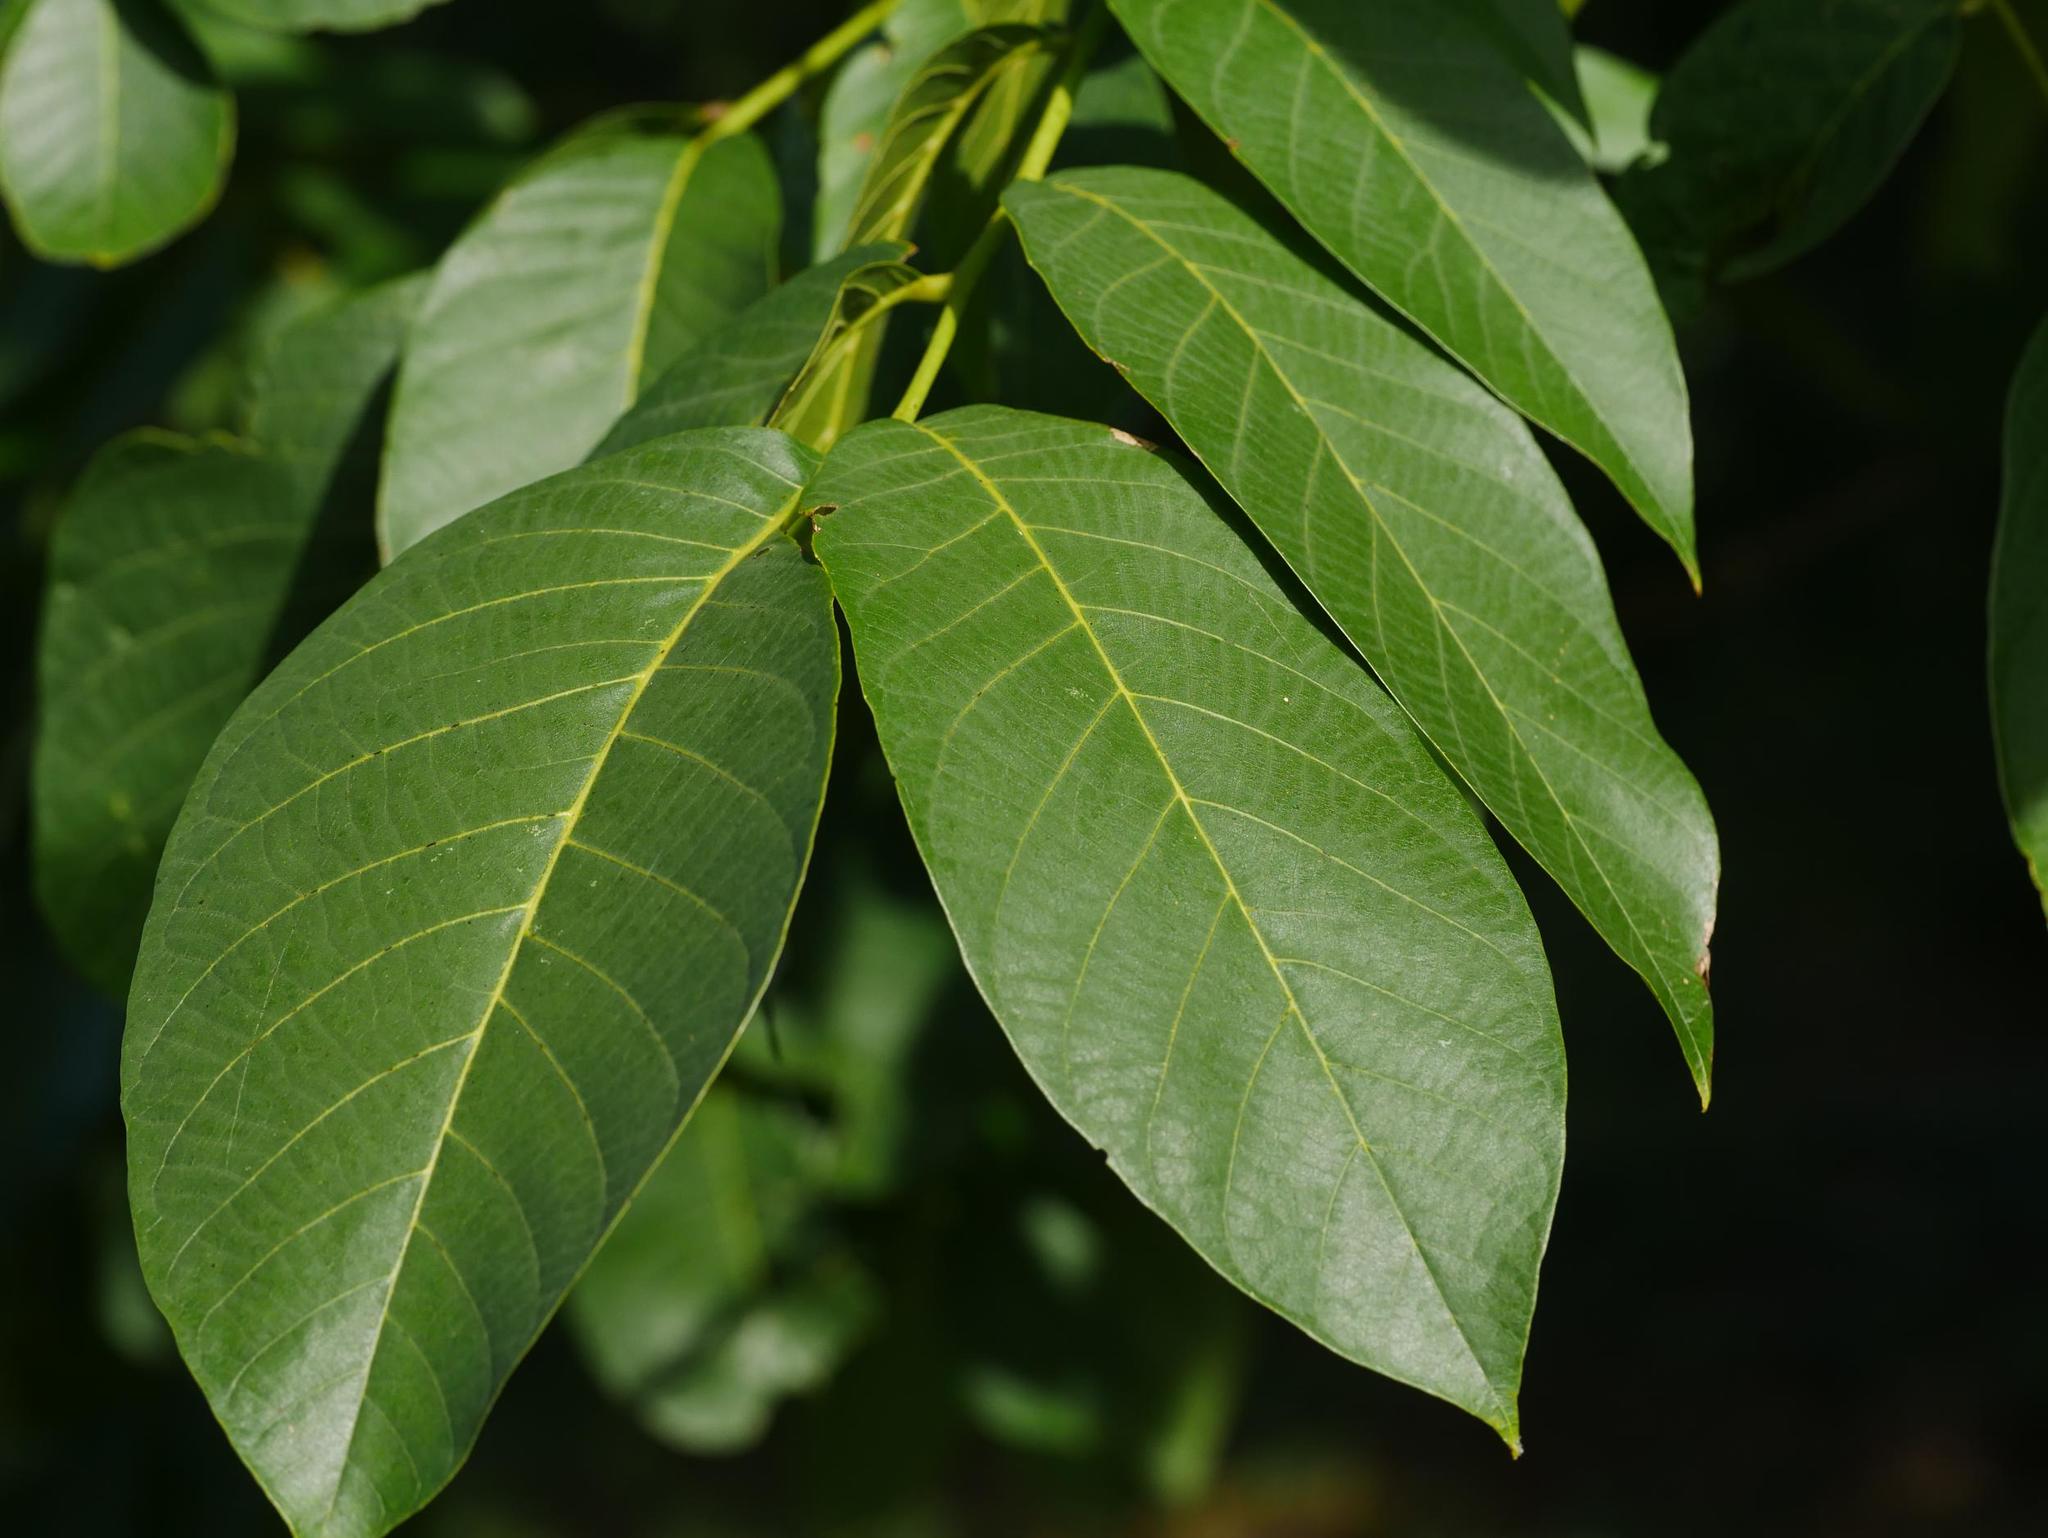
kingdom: Plantae
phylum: Tracheophyta
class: Magnoliopsida
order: Fagales
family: Juglandaceae
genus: Juglans
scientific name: Juglans regia
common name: Walnut
